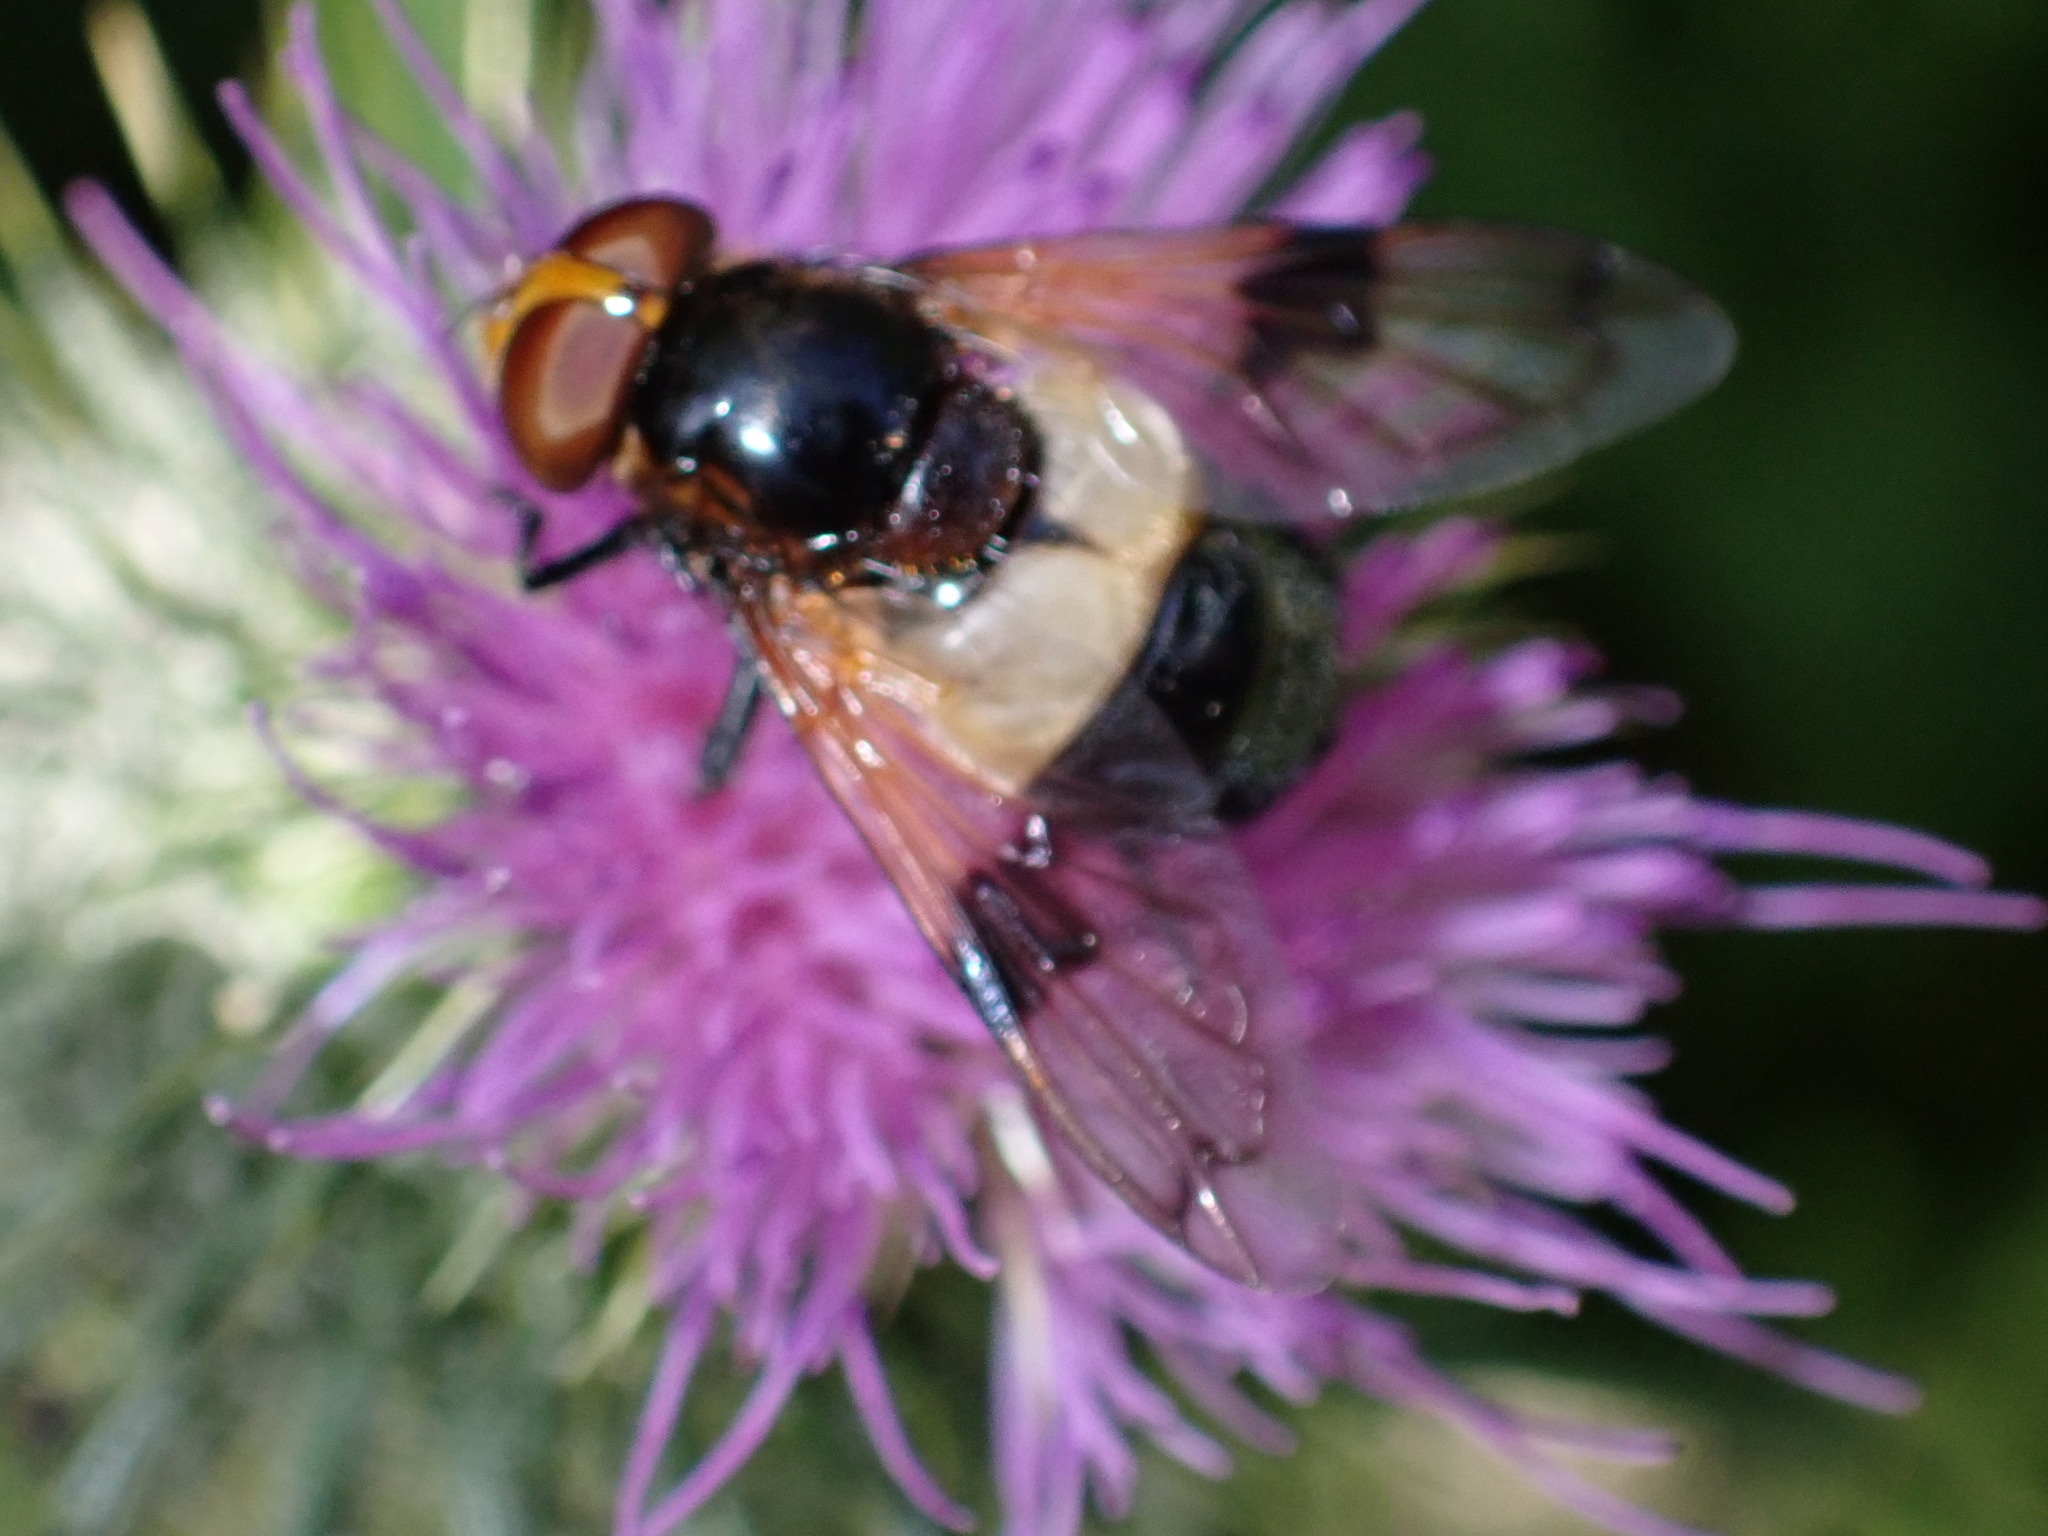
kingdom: Animalia
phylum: Arthropoda
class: Insecta
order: Diptera
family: Syrphidae
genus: Volucella
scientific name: Volucella pellucens
